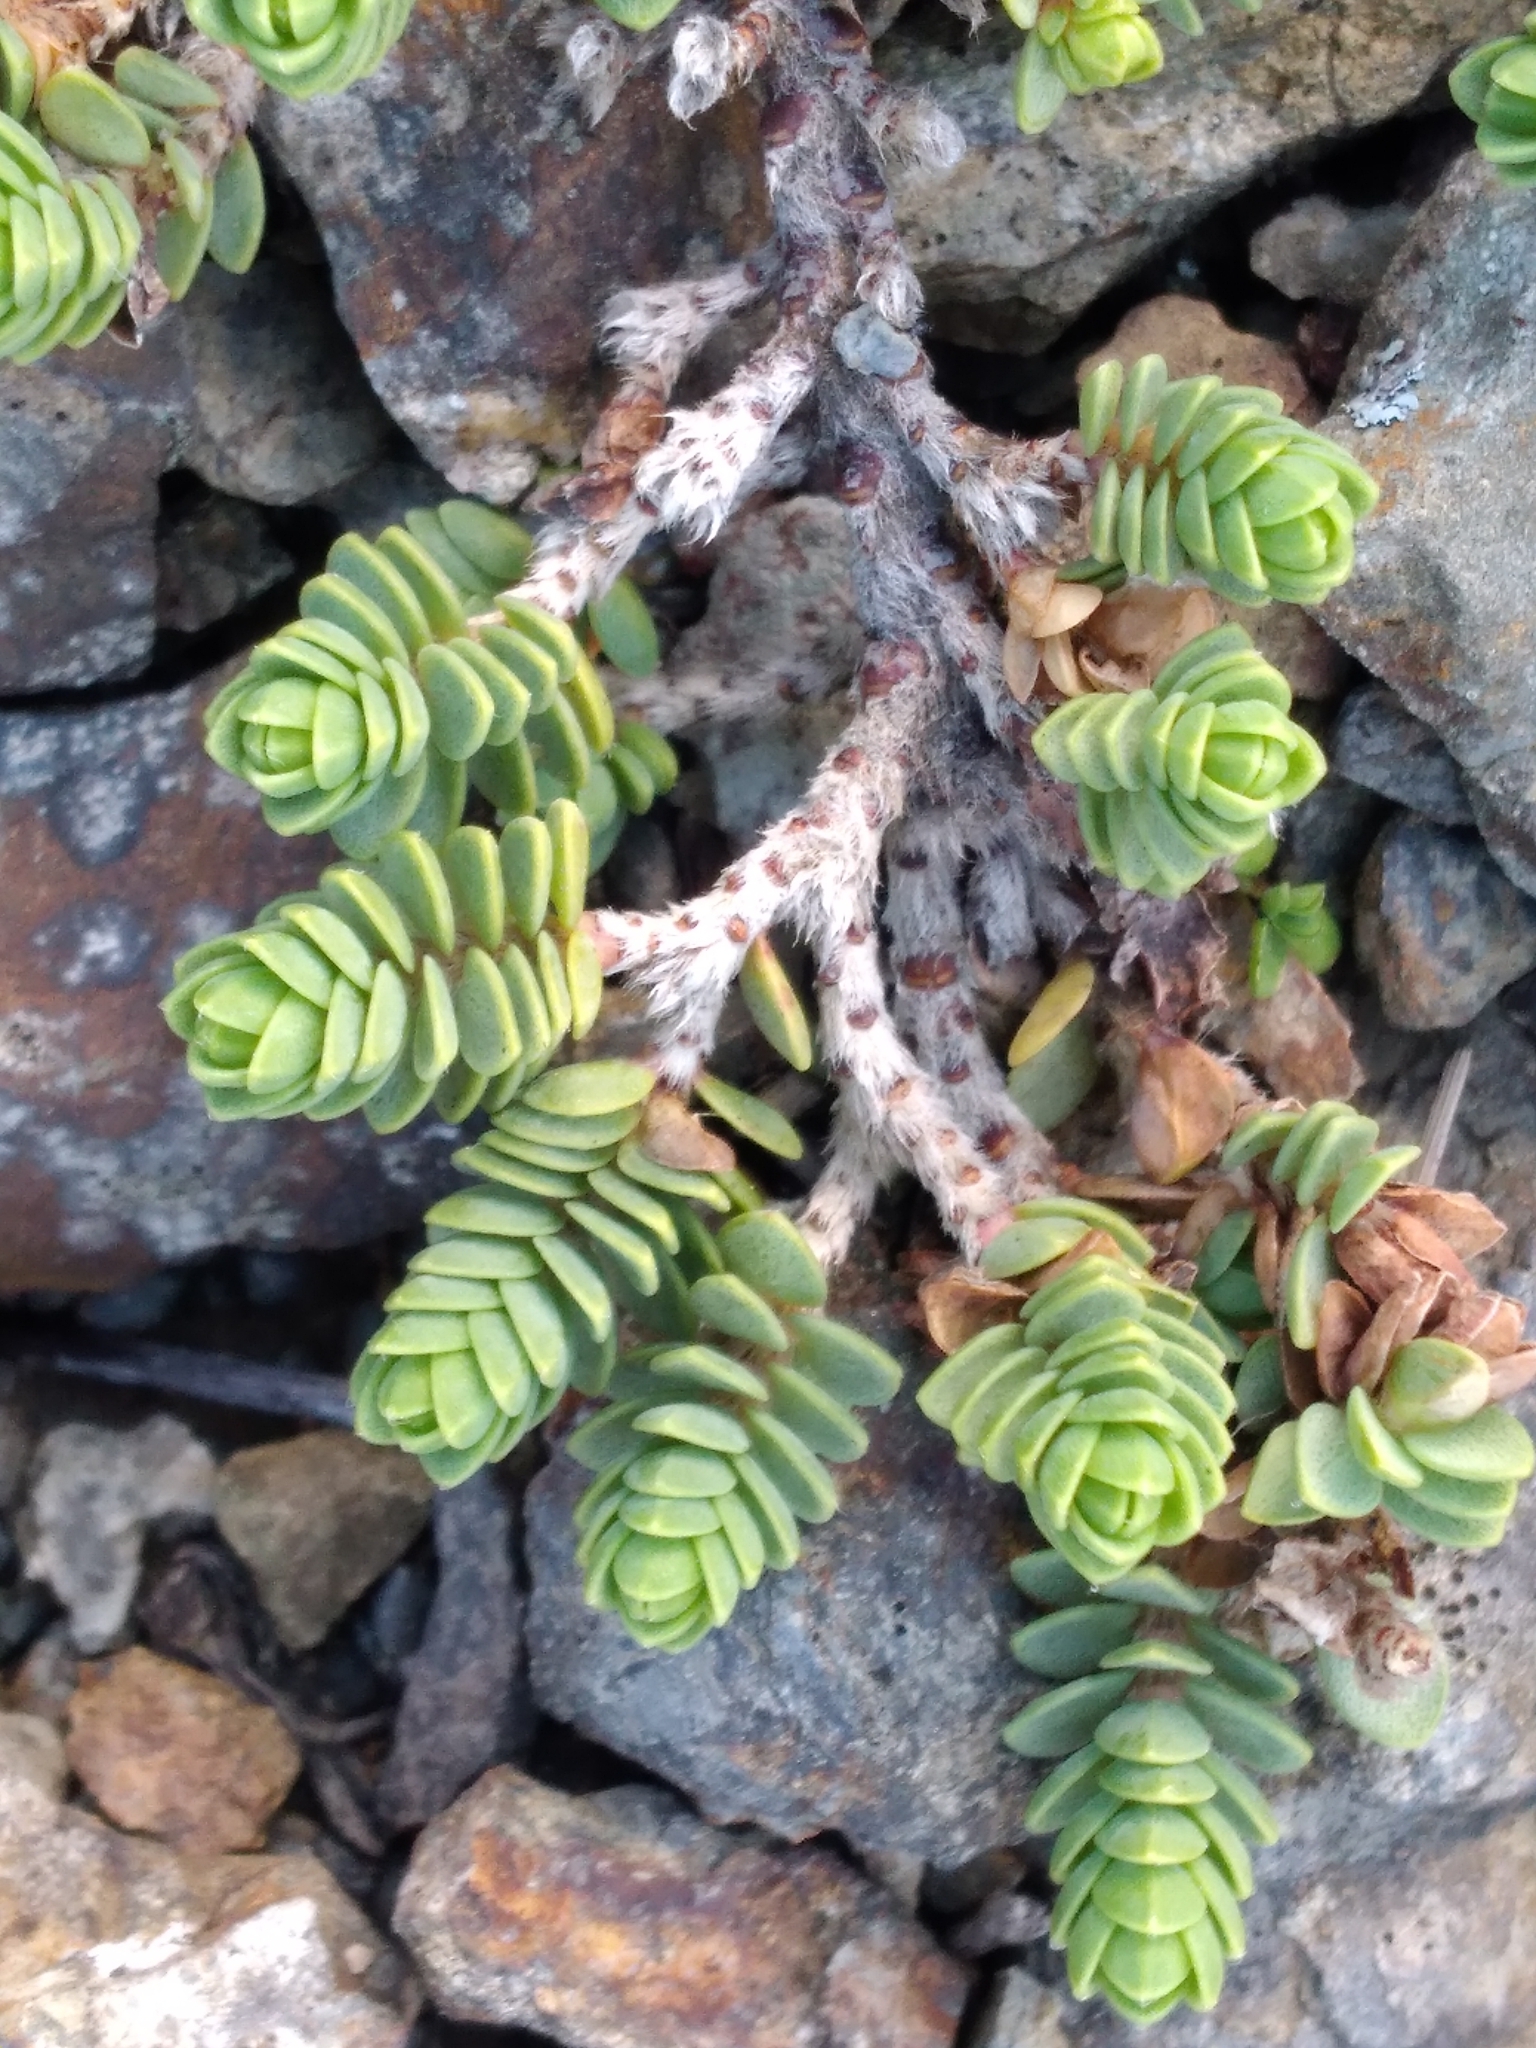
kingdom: Plantae
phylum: Tracheophyta
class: Magnoliopsida
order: Malvales
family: Thymelaeaceae
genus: Pimelea
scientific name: Pimelea carnosa
